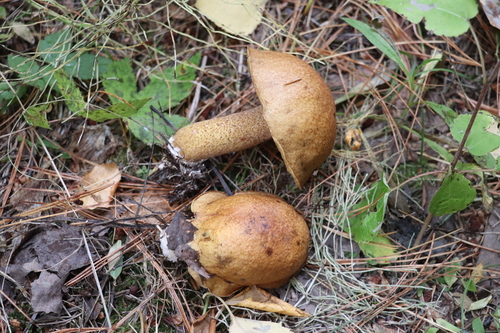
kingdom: Fungi
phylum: Basidiomycota
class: Agaricomycetes
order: Boletales
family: Suillaceae
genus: Suillus
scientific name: Suillus punctipes
